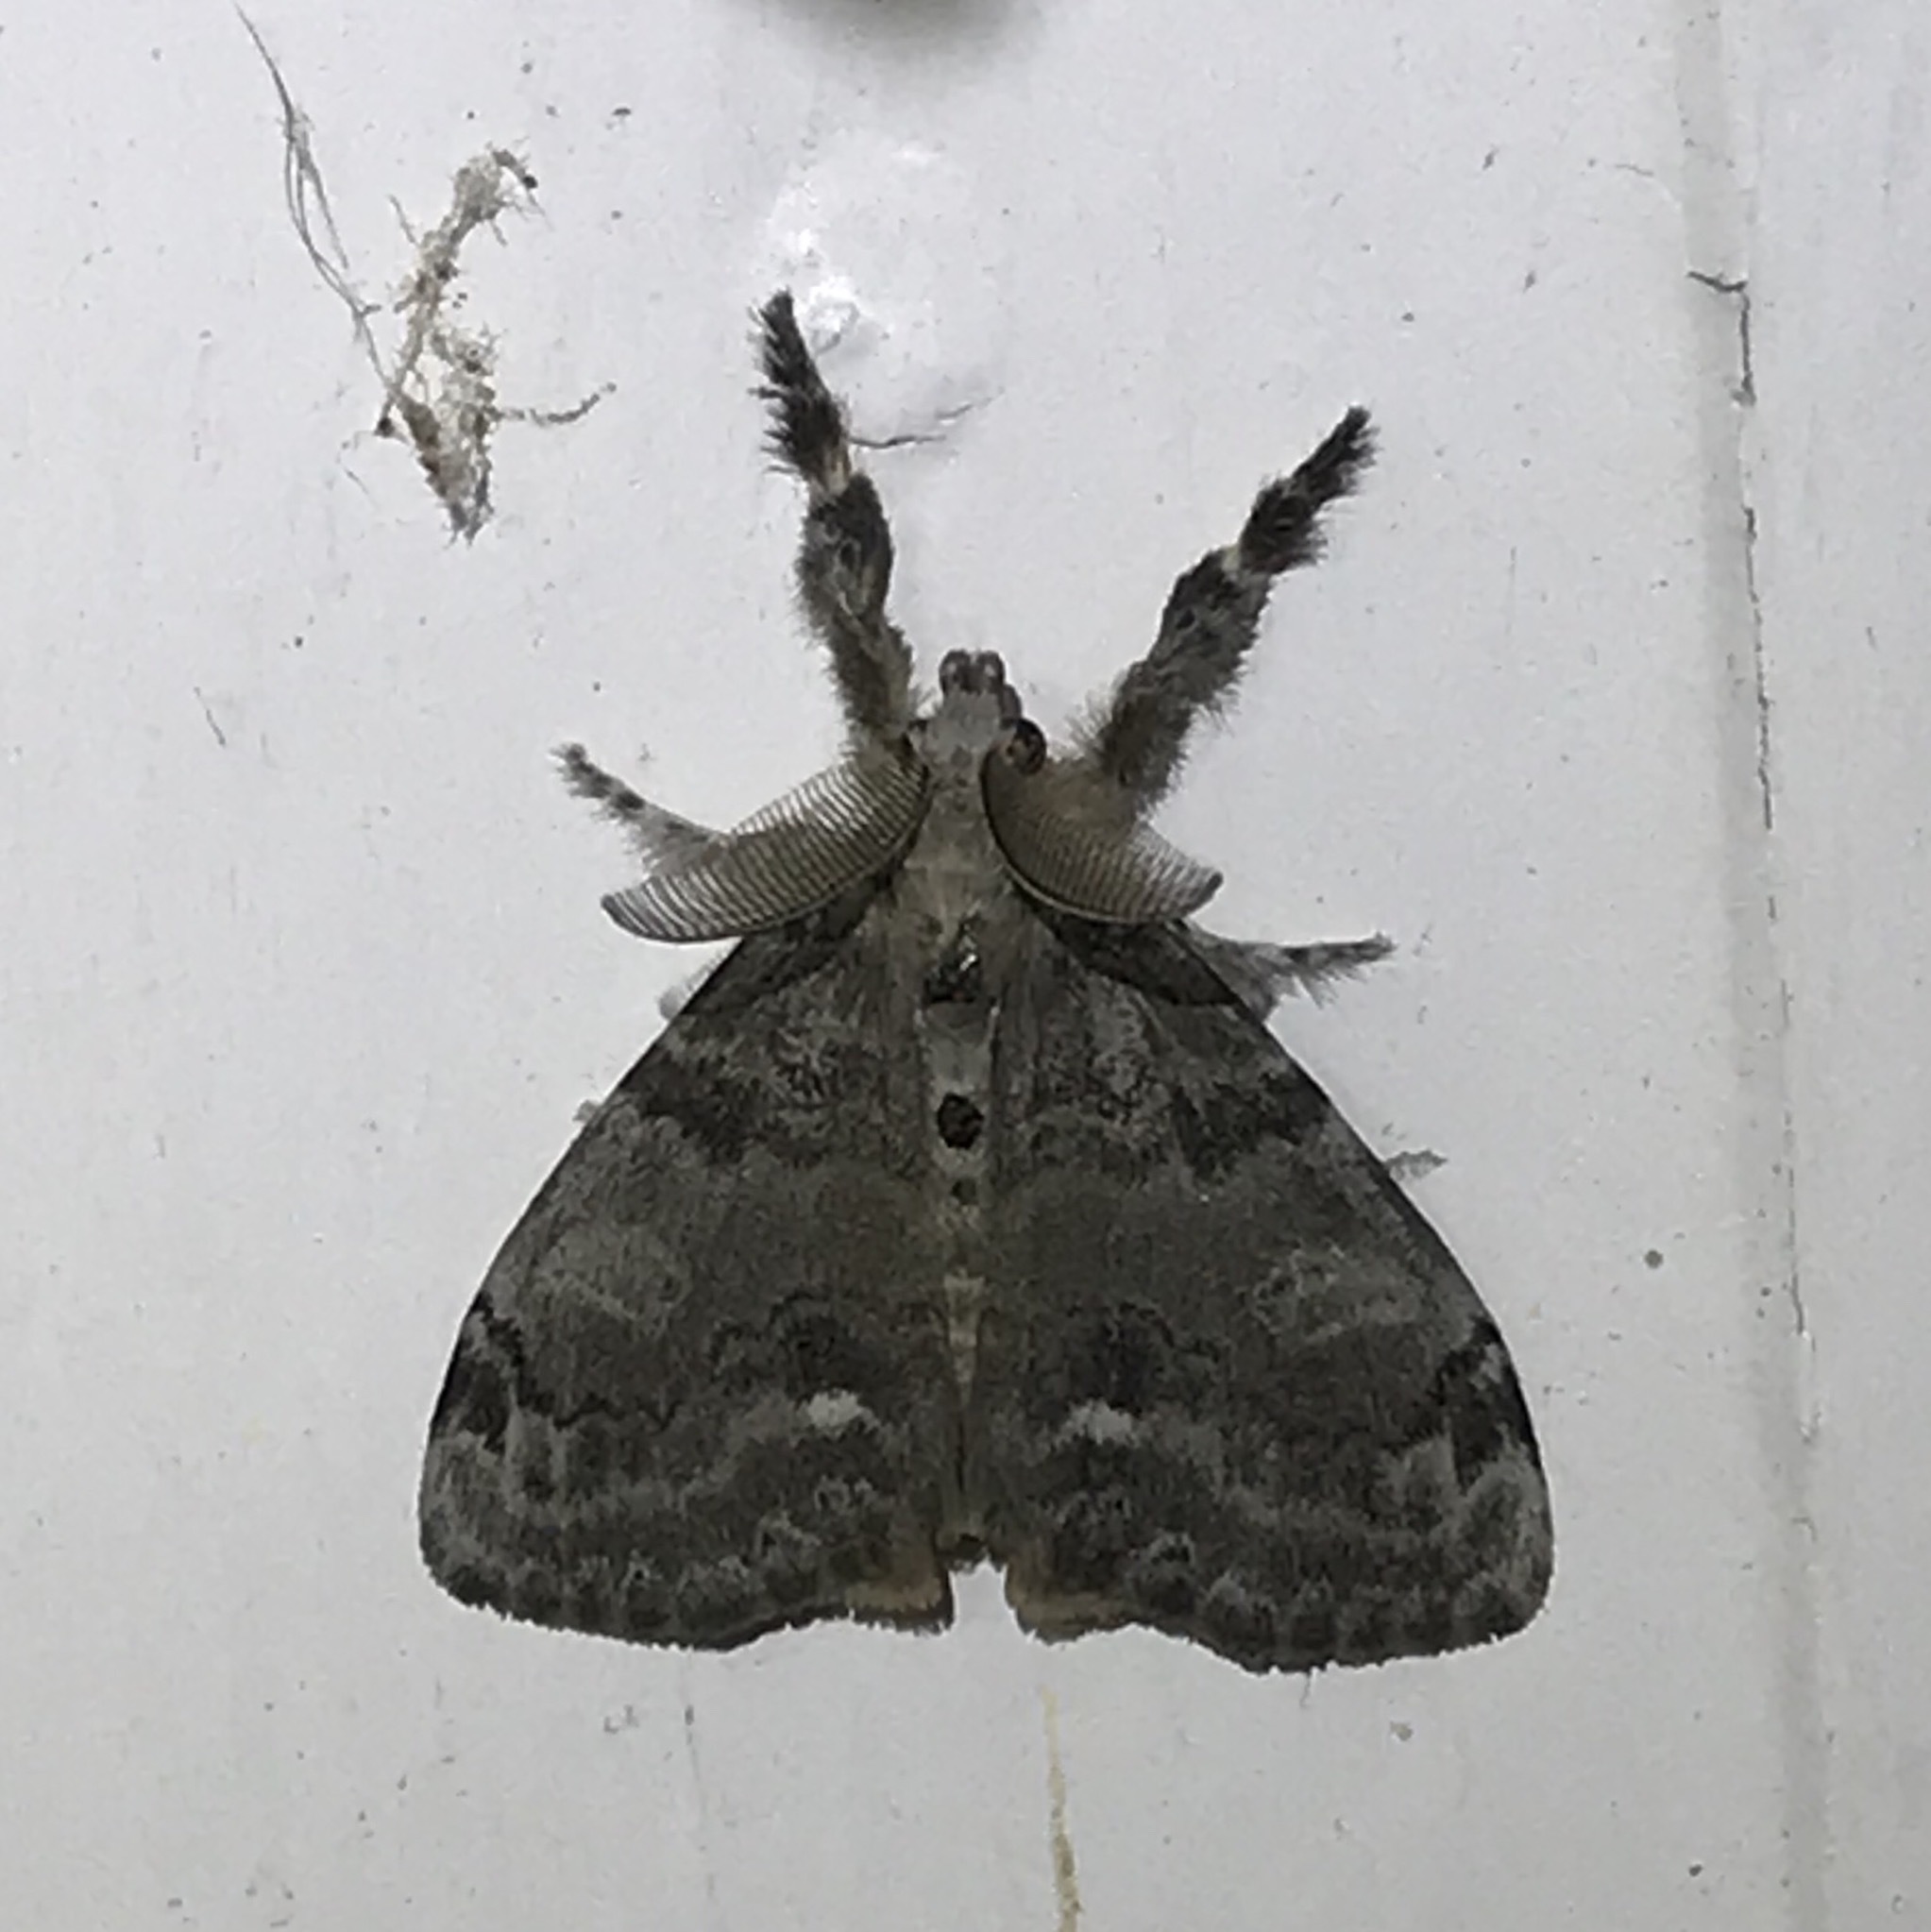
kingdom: Animalia
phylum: Arthropoda
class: Insecta
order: Lepidoptera
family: Erebidae
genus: Orgyia
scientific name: Orgyia leucostigma
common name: White-marked tussock moth
